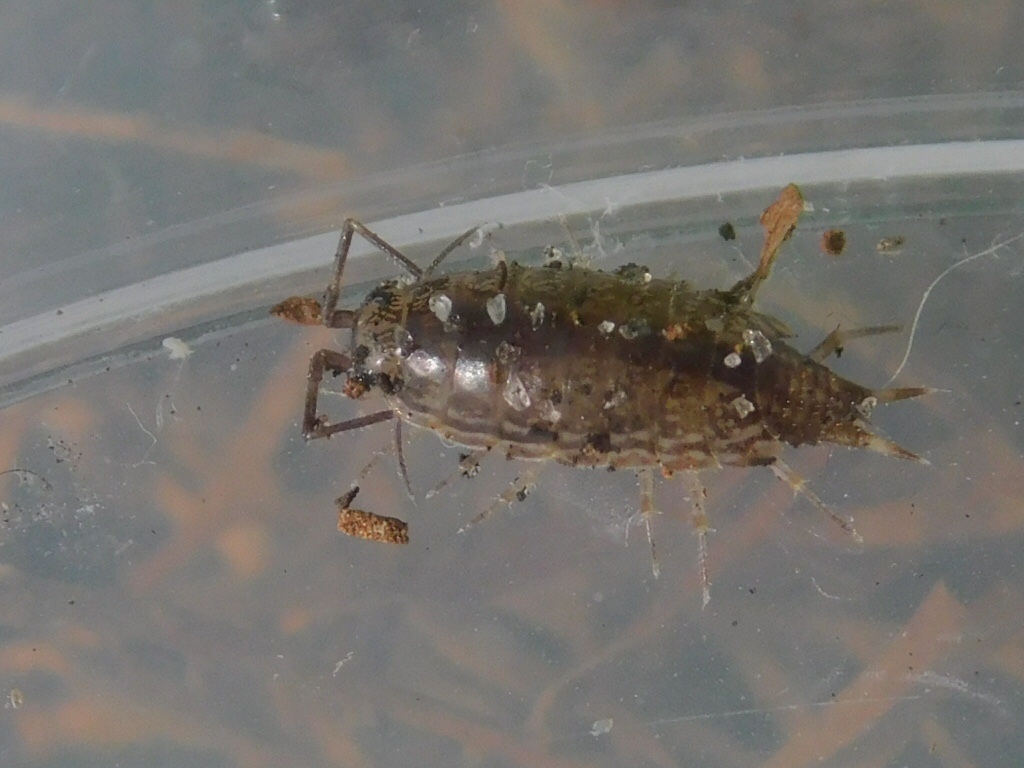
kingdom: Animalia
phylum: Arthropoda
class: Malacostraca
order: Isopoda
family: Philosciidae
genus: Atlantoscia
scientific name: Atlantoscia floridana
